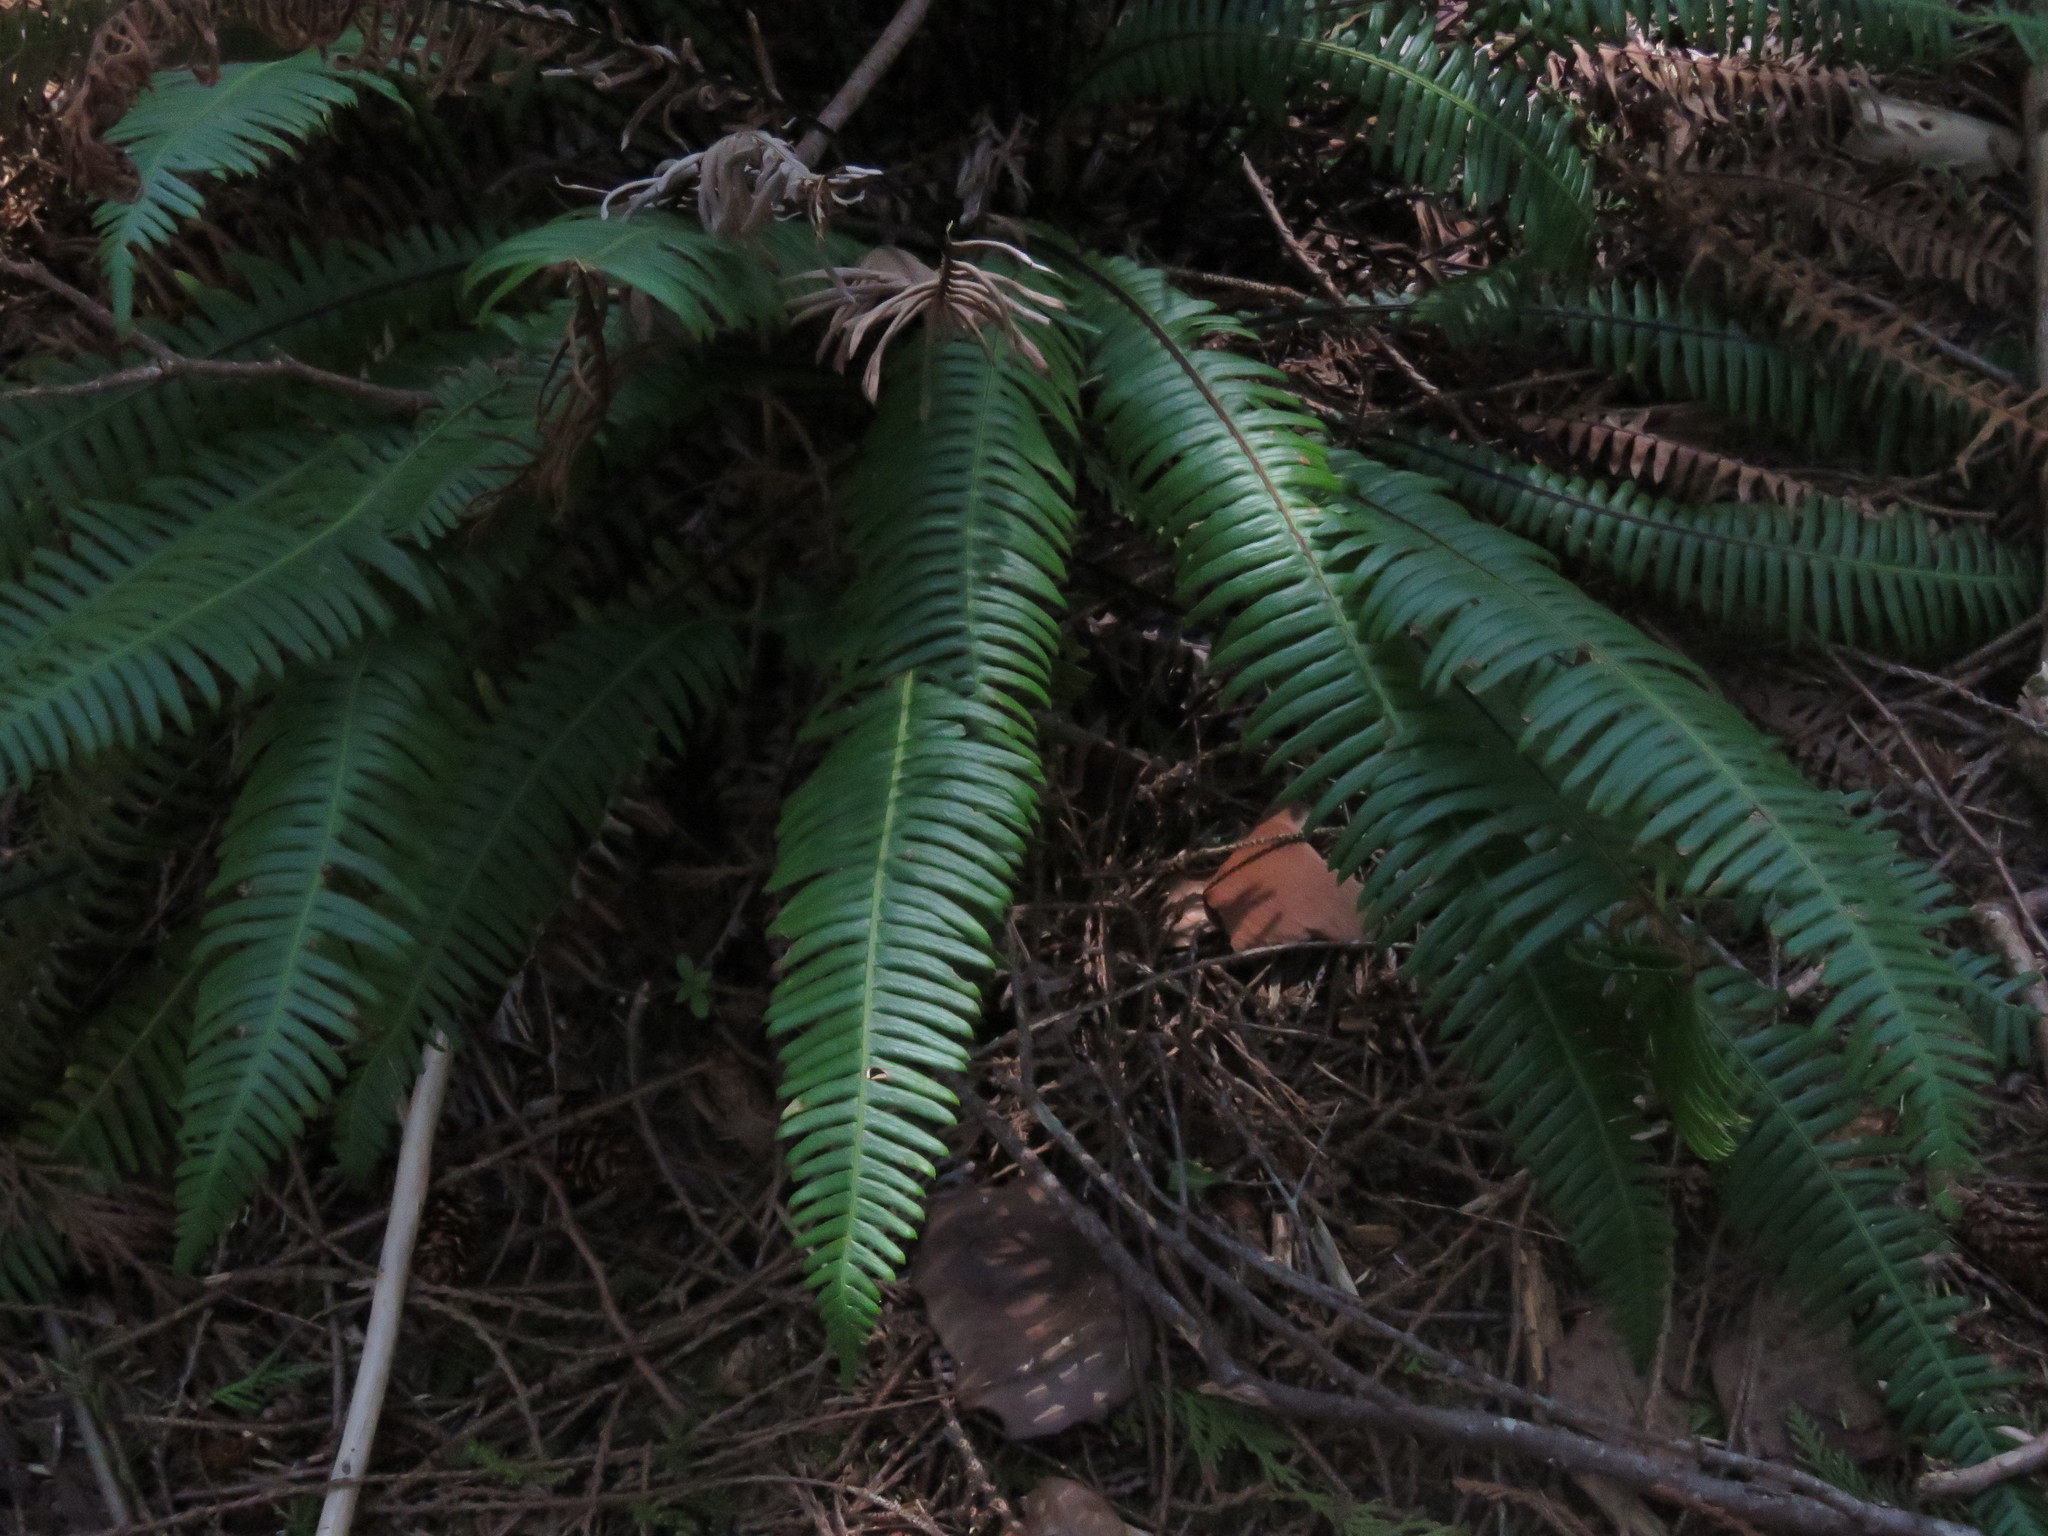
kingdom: Plantae
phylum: Tracheophyta
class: Polypodiopsida
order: Polypodiales
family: Blechnaceae
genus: Struthiopteris
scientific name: Struthiopteris spicant
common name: Deer fern
